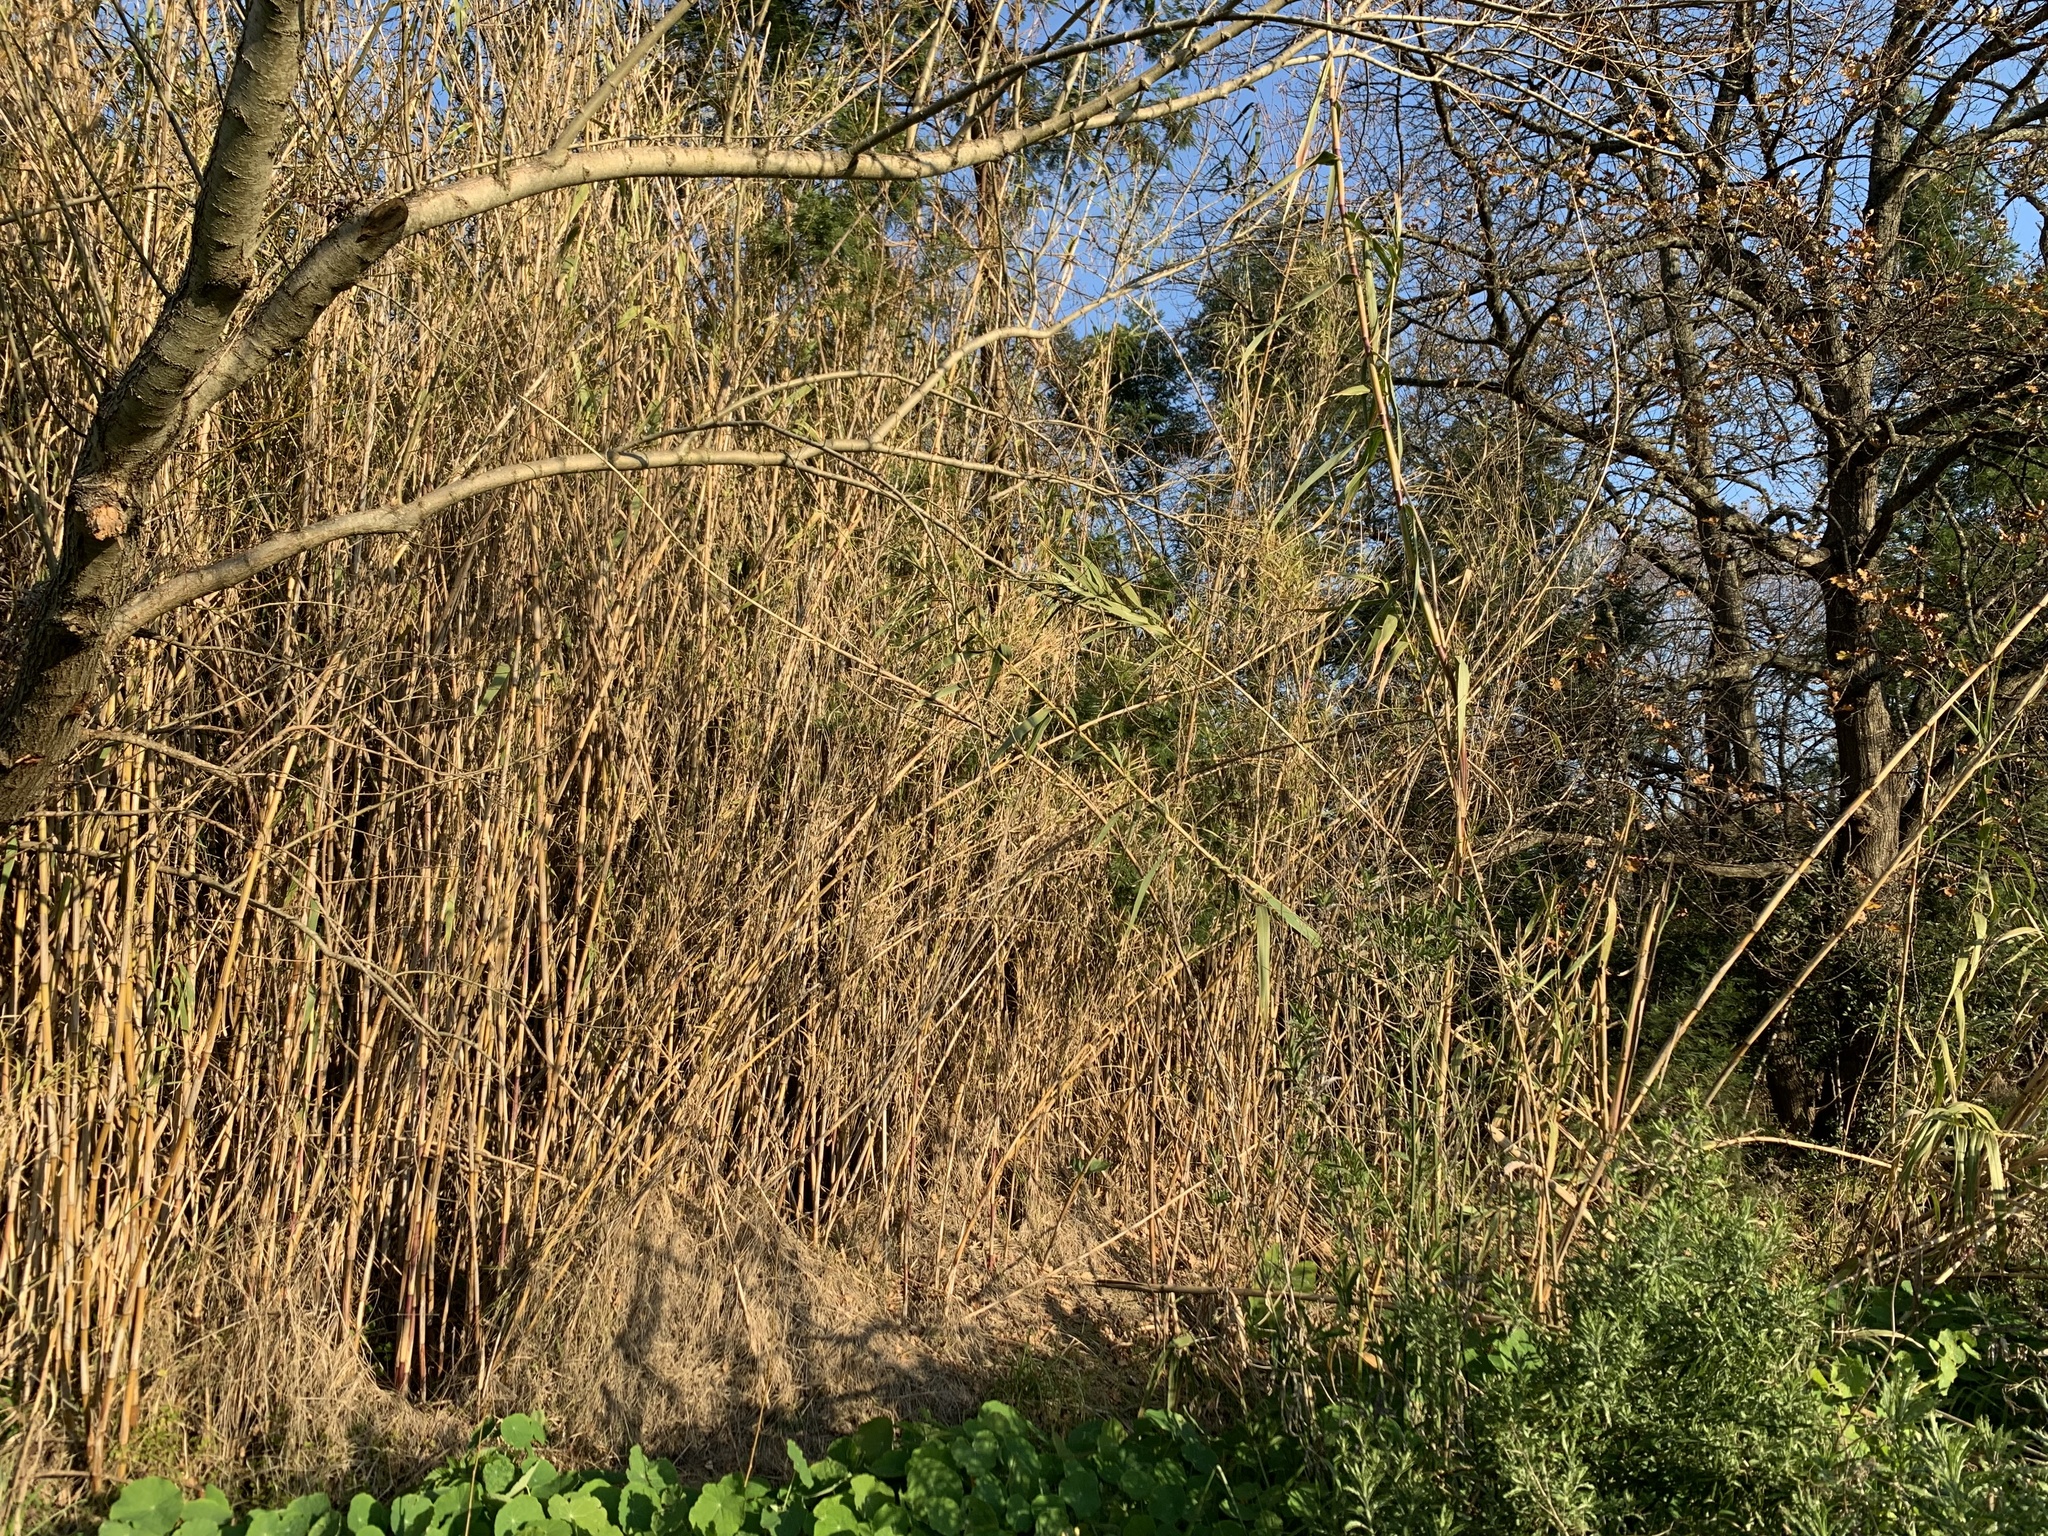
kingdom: Plantae
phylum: Tracheophyta
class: Liliopsida
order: Poales
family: Poaceae
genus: Arundo
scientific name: Arundo donax
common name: Giant reed
